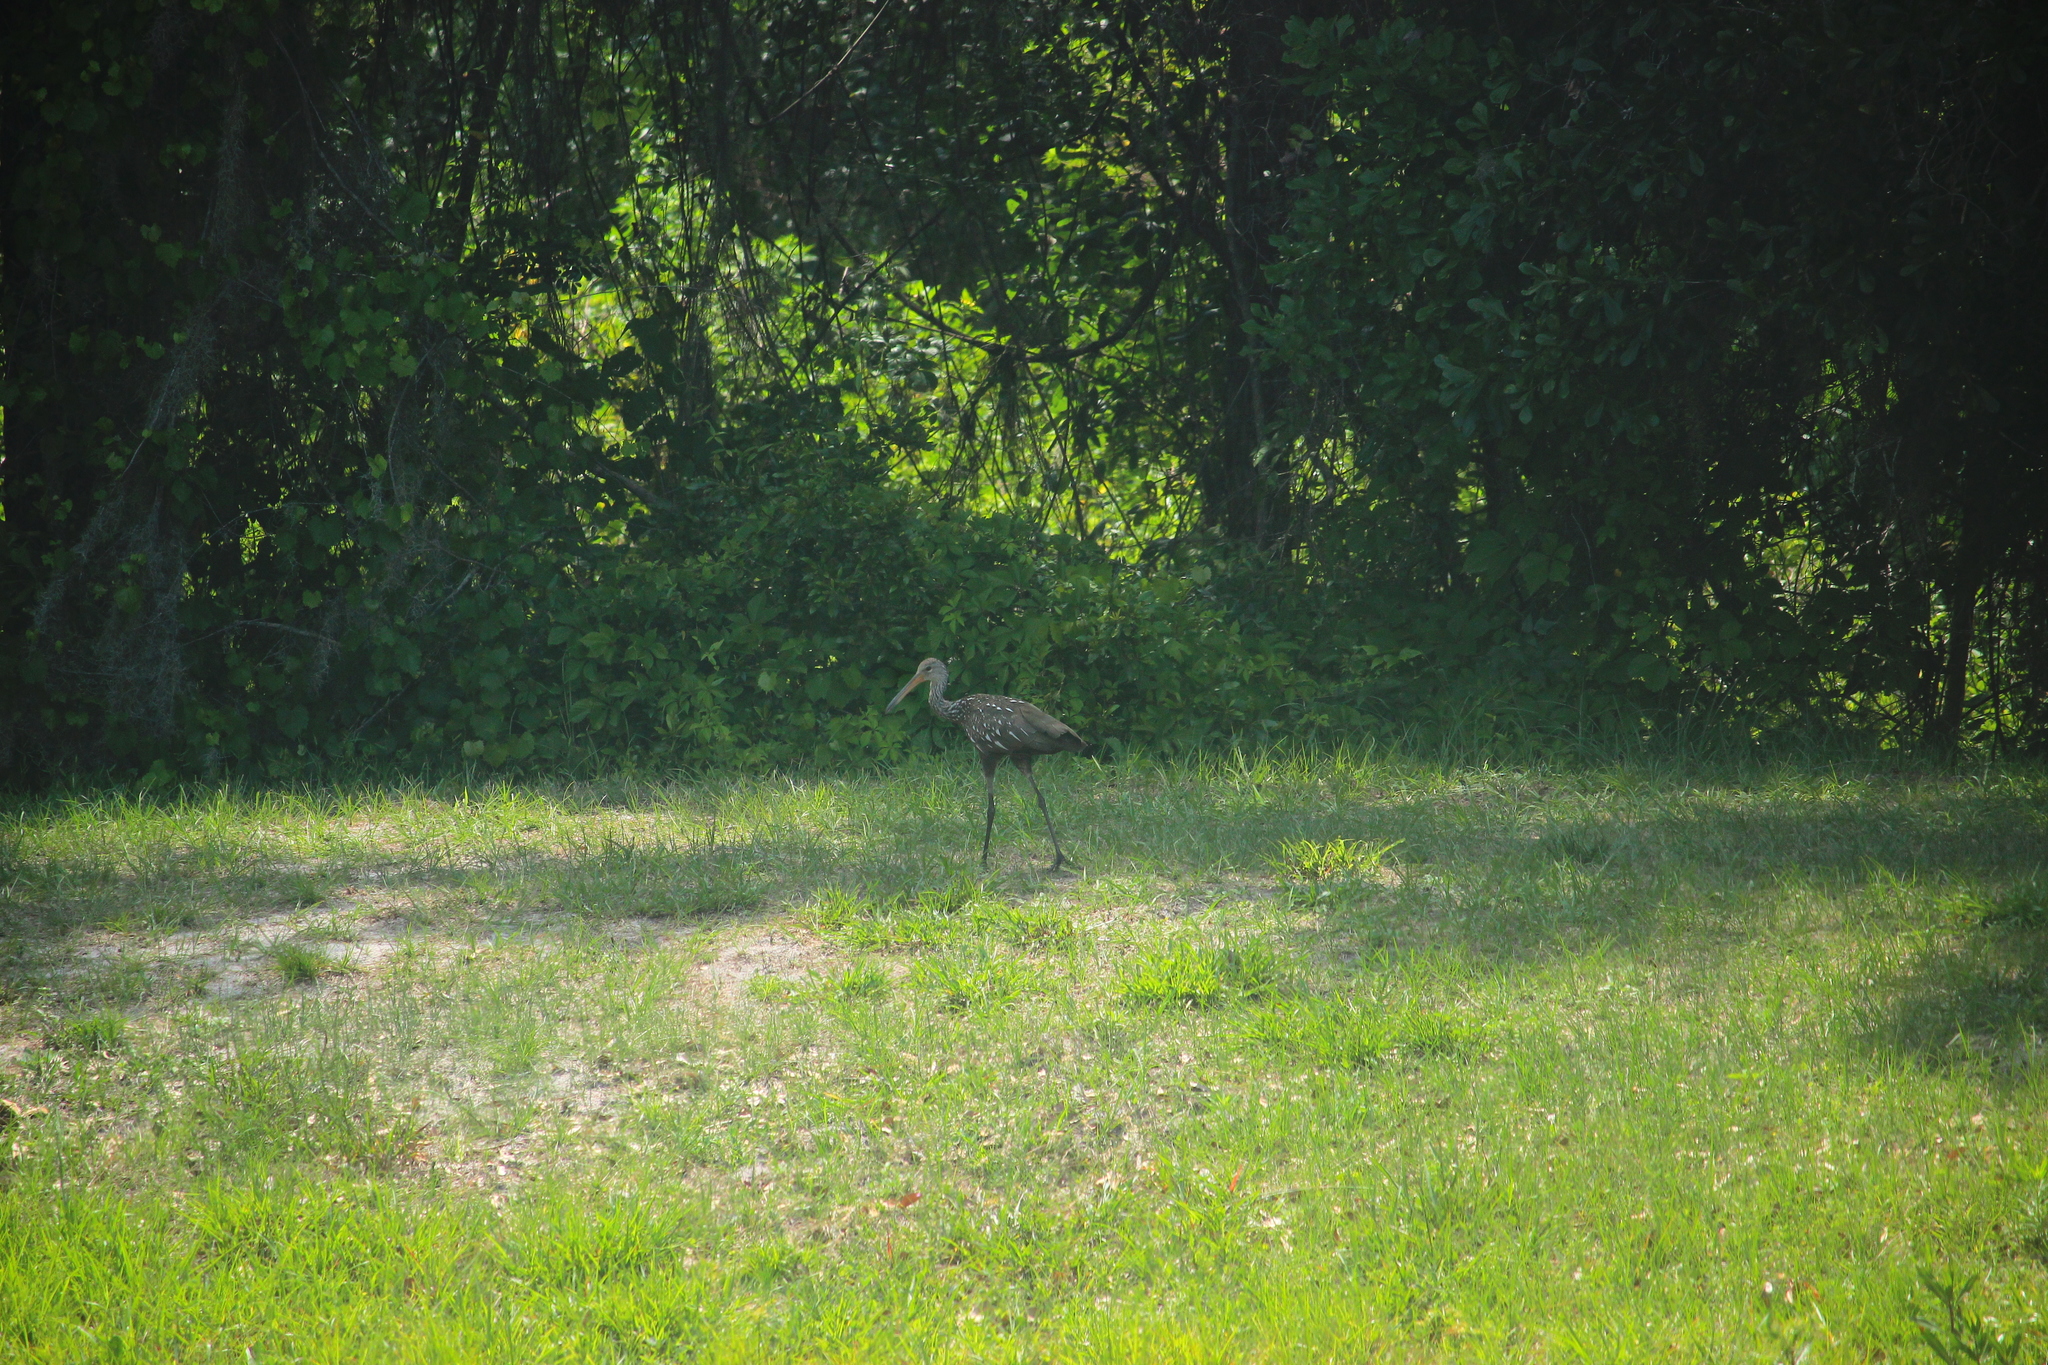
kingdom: Animalia
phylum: Chordata
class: Aves
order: Gruiformes
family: Aramidae
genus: Aramus
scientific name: Aramus guarauna
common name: Limpkin
